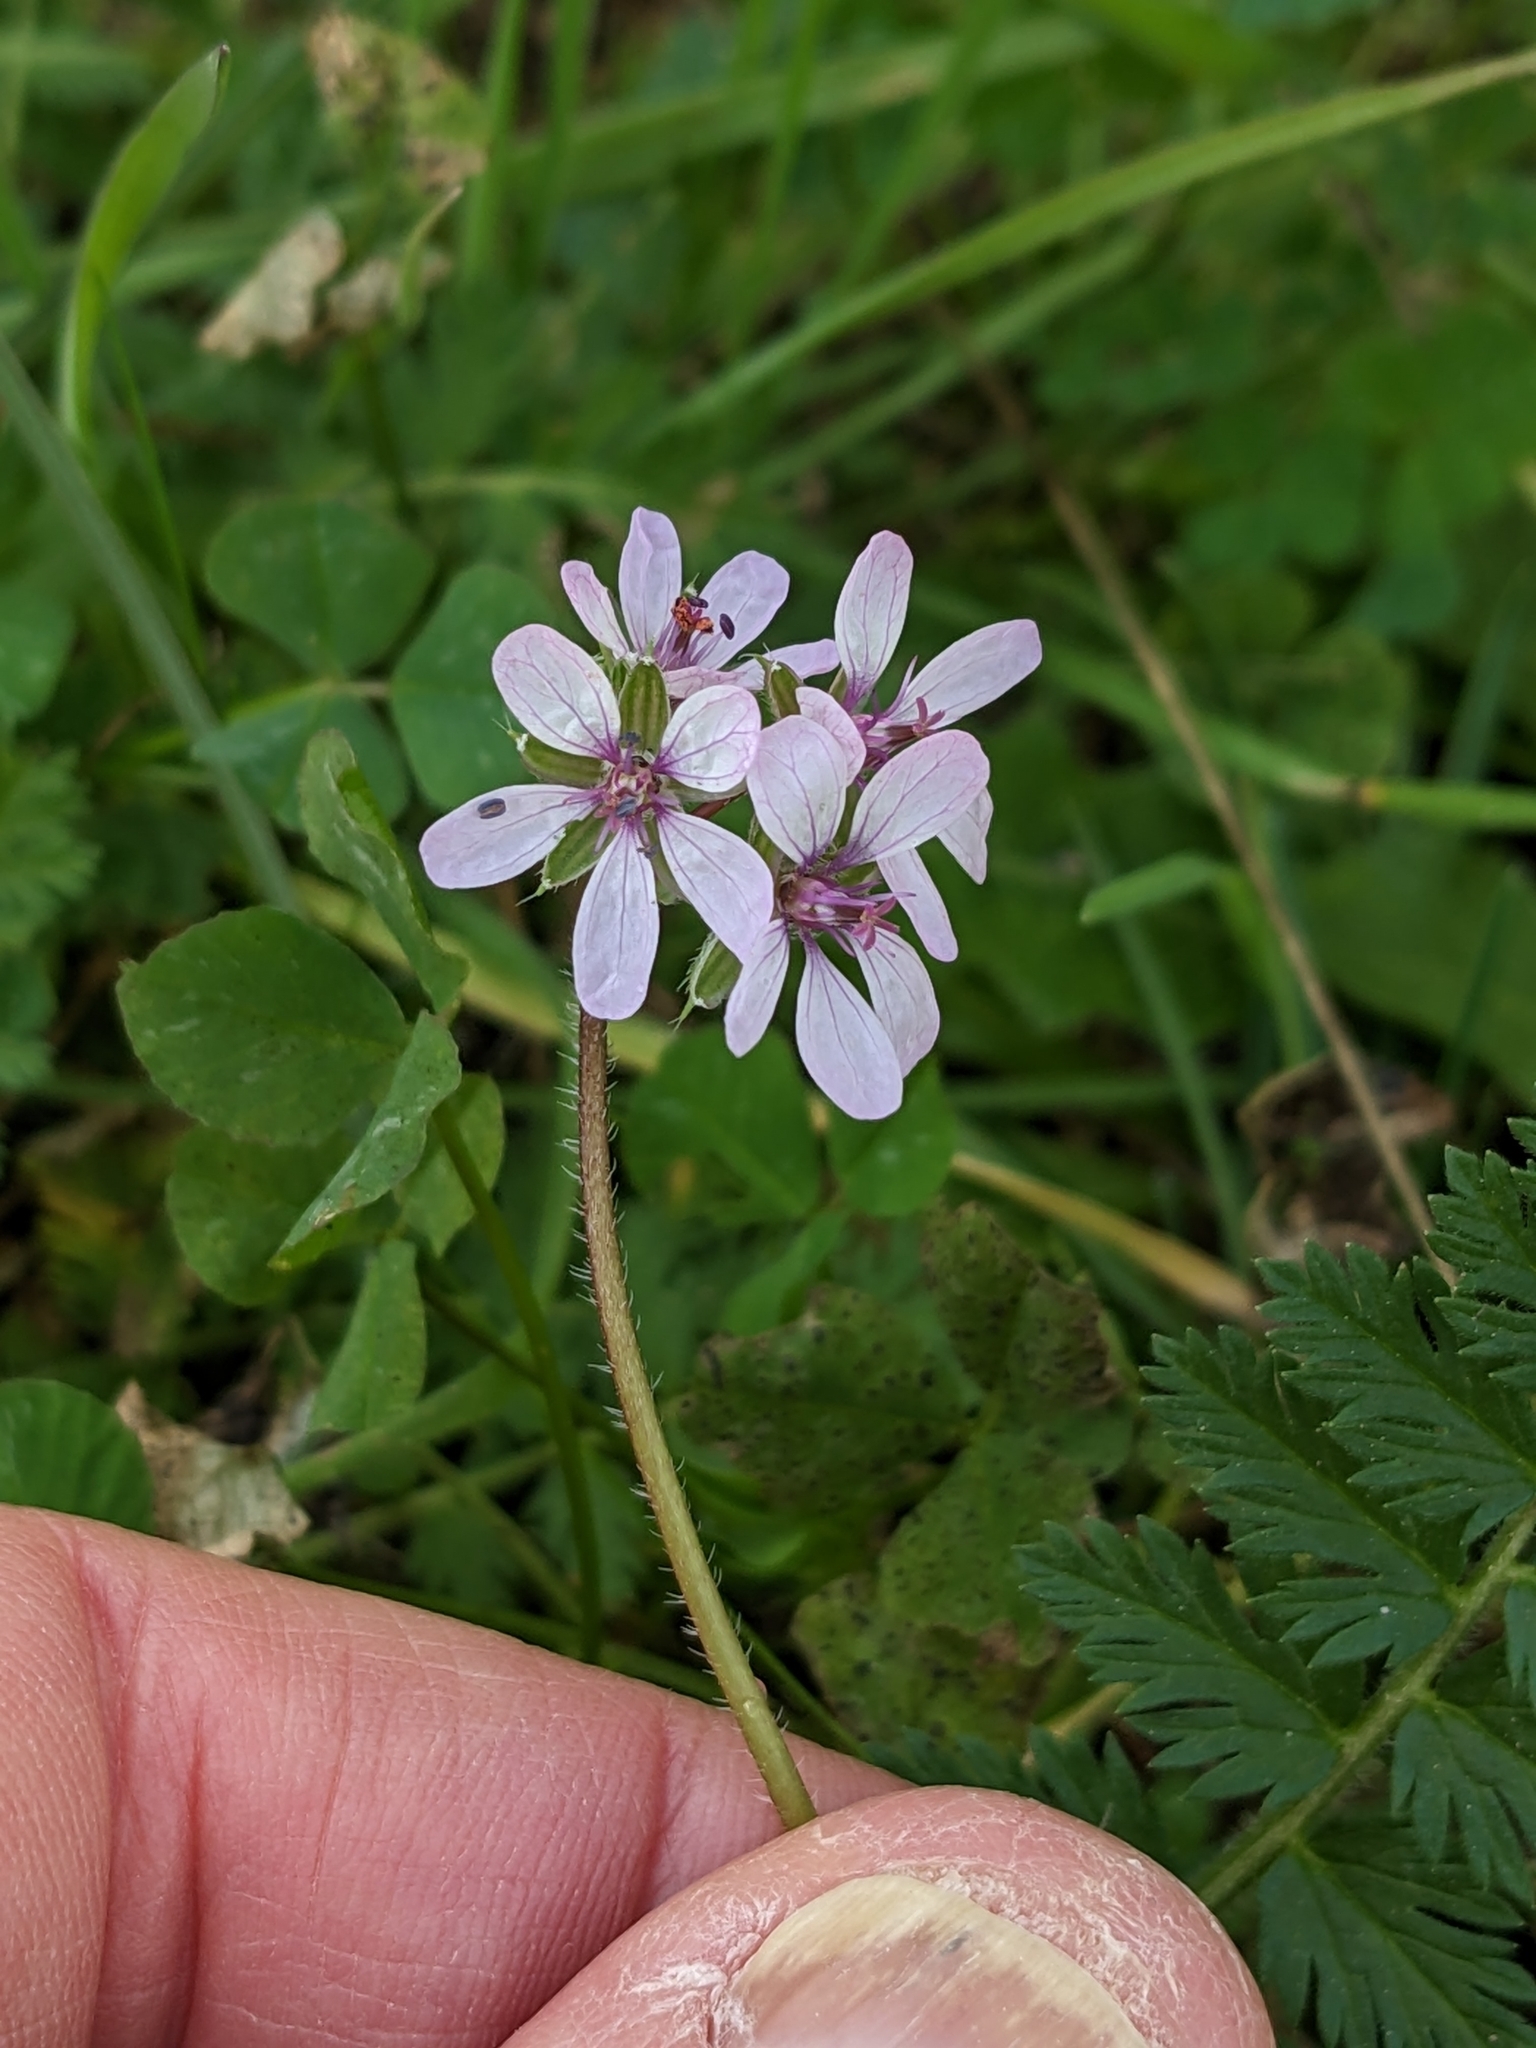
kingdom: Plantae
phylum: Tracheophyta
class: Magnoliopsida
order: Geraniales
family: Geraniaceae
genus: Erodium
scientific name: Erodium cicutarium
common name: Common stork's-bill
